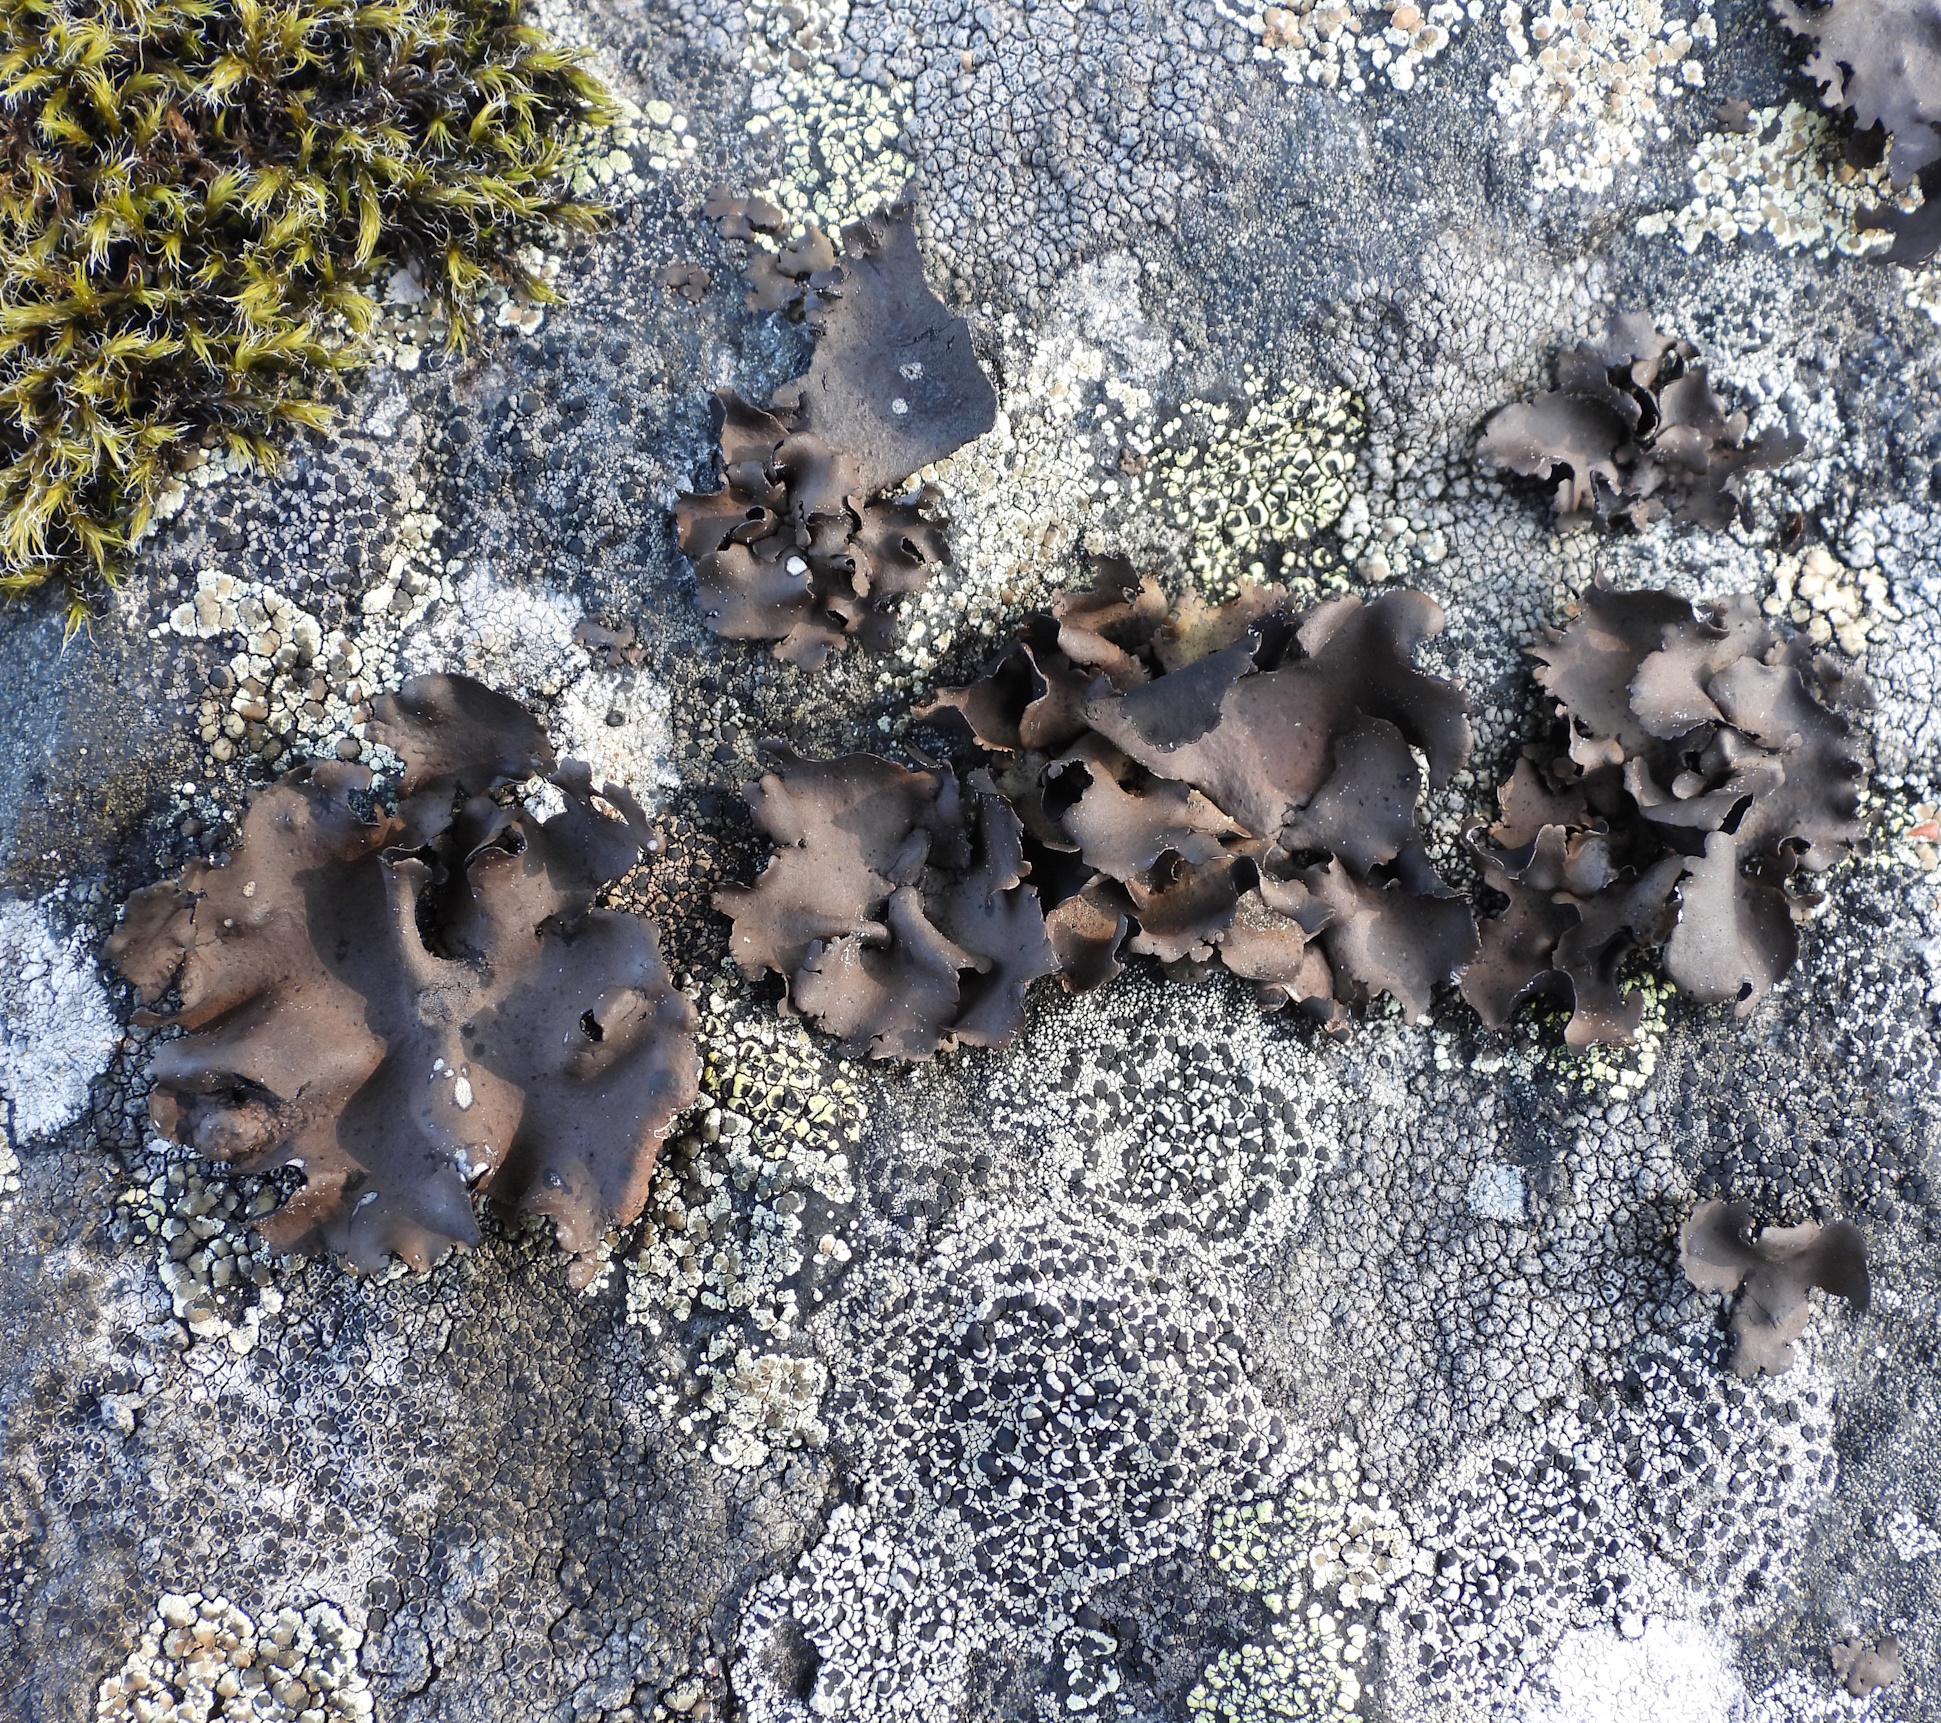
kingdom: Fungi
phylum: Ascomycota
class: Lecanoromycetes
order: Umbilicariales
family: Umbilicariaceae
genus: Umbilicaria
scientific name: Umbilicaria polyphylla
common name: Petalled rocktripe lichen
